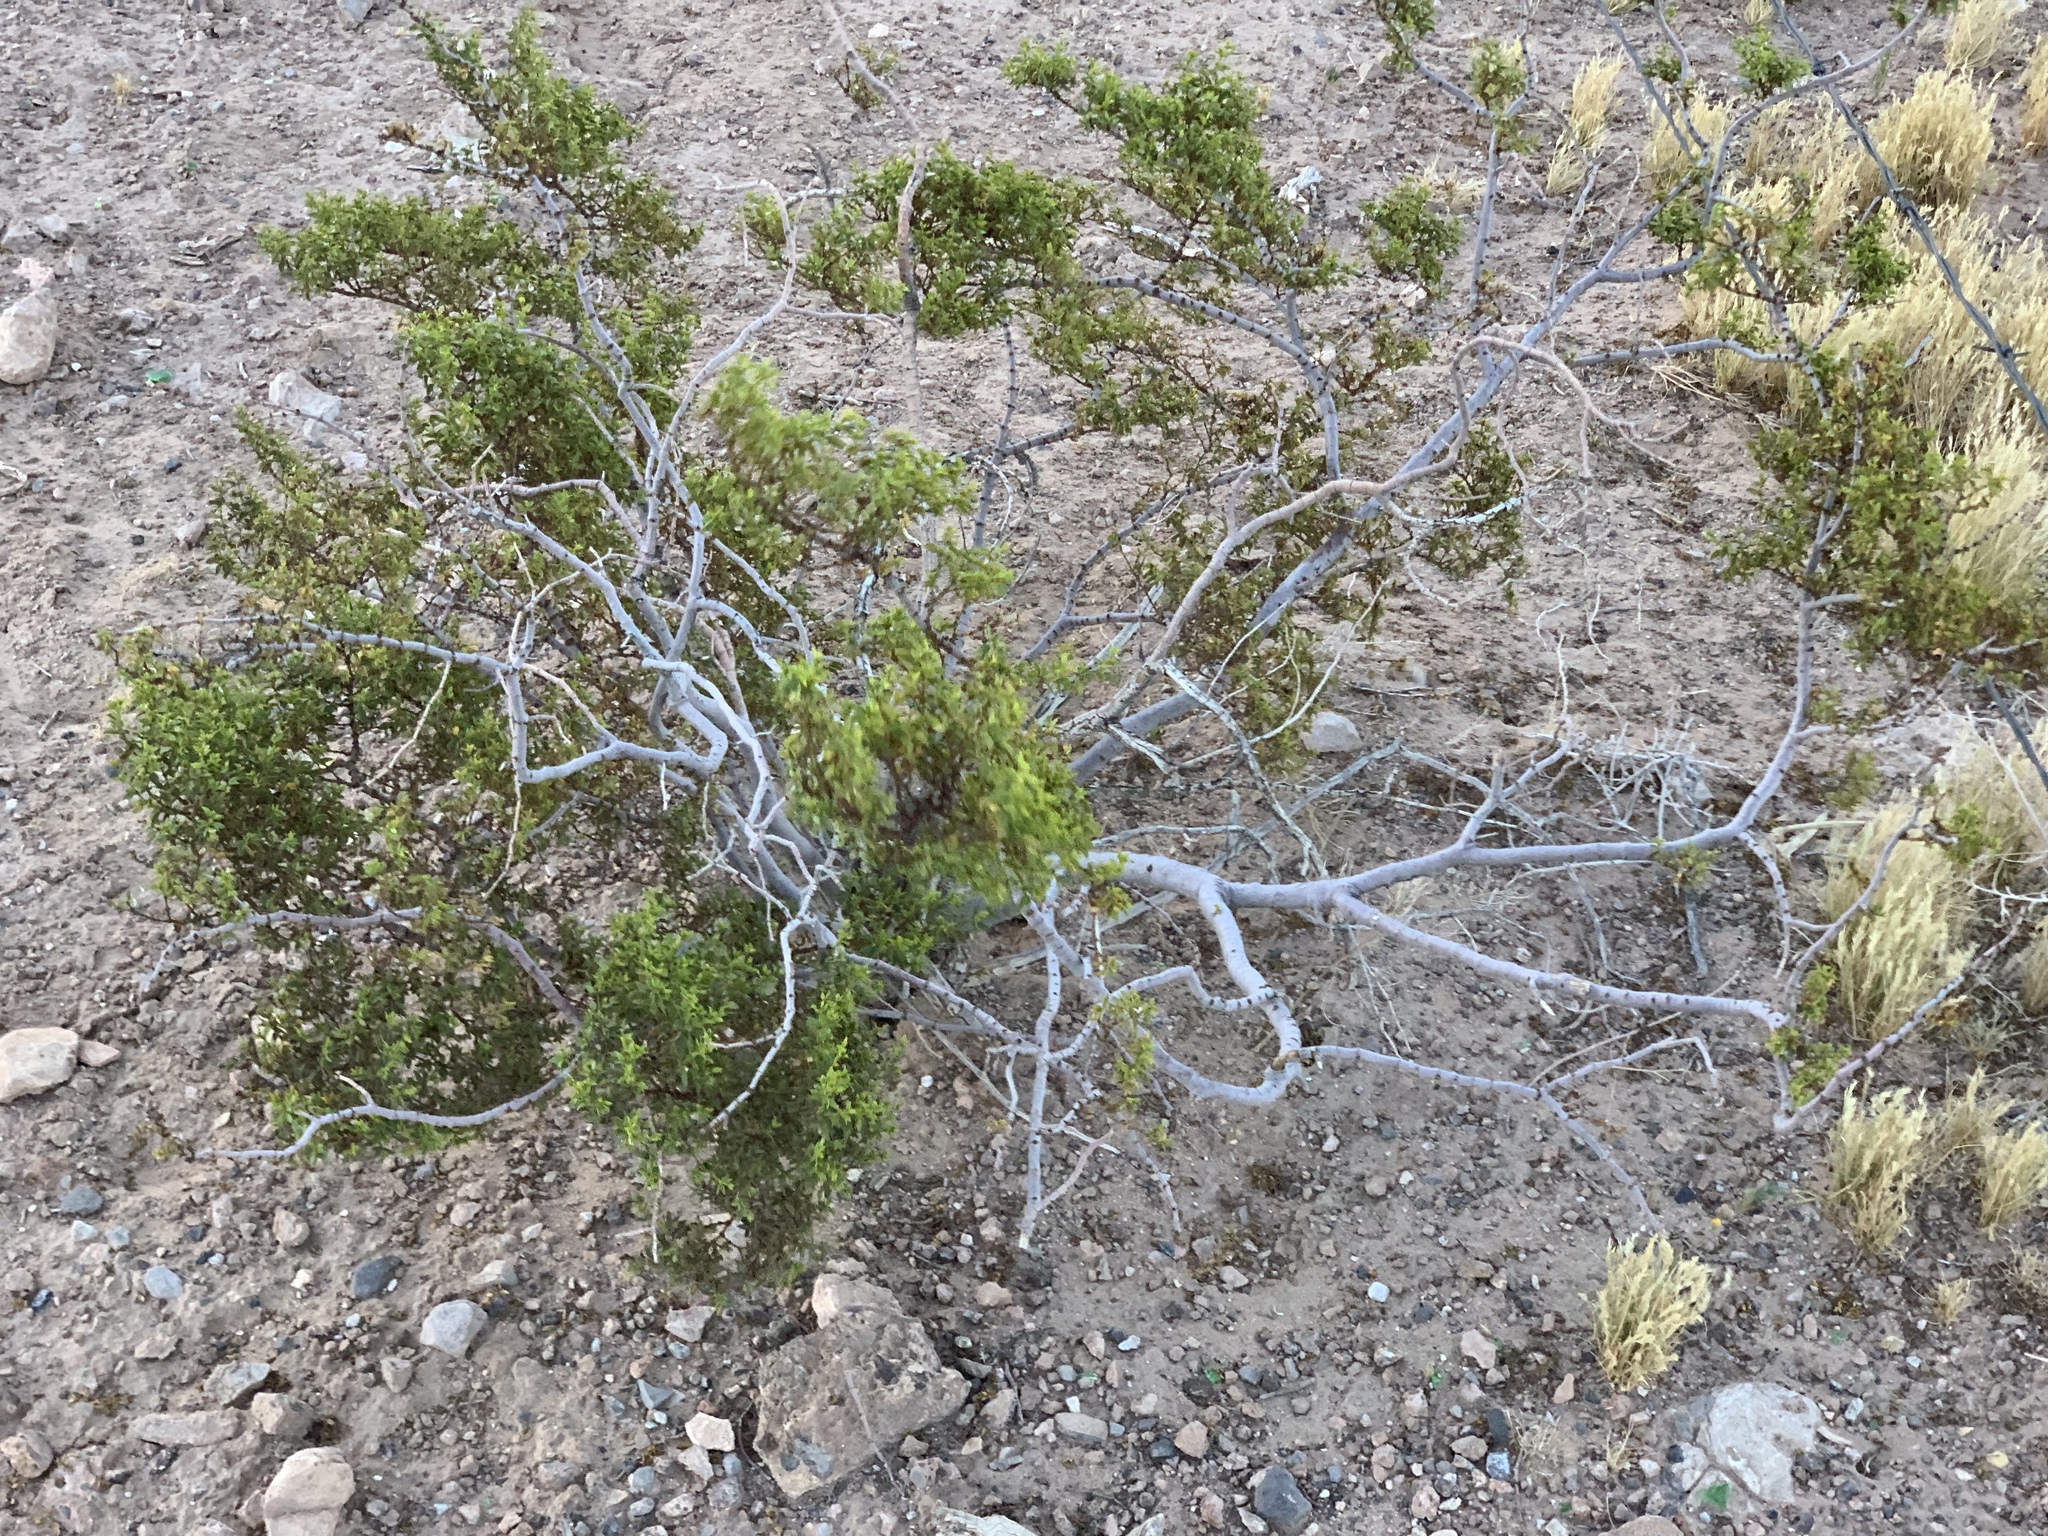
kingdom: Plantae
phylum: Tracheophyta
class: Magnoliopsida
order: Zygophyllales
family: Zygophyllaceae
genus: Larrea
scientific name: Larrea tridentata
